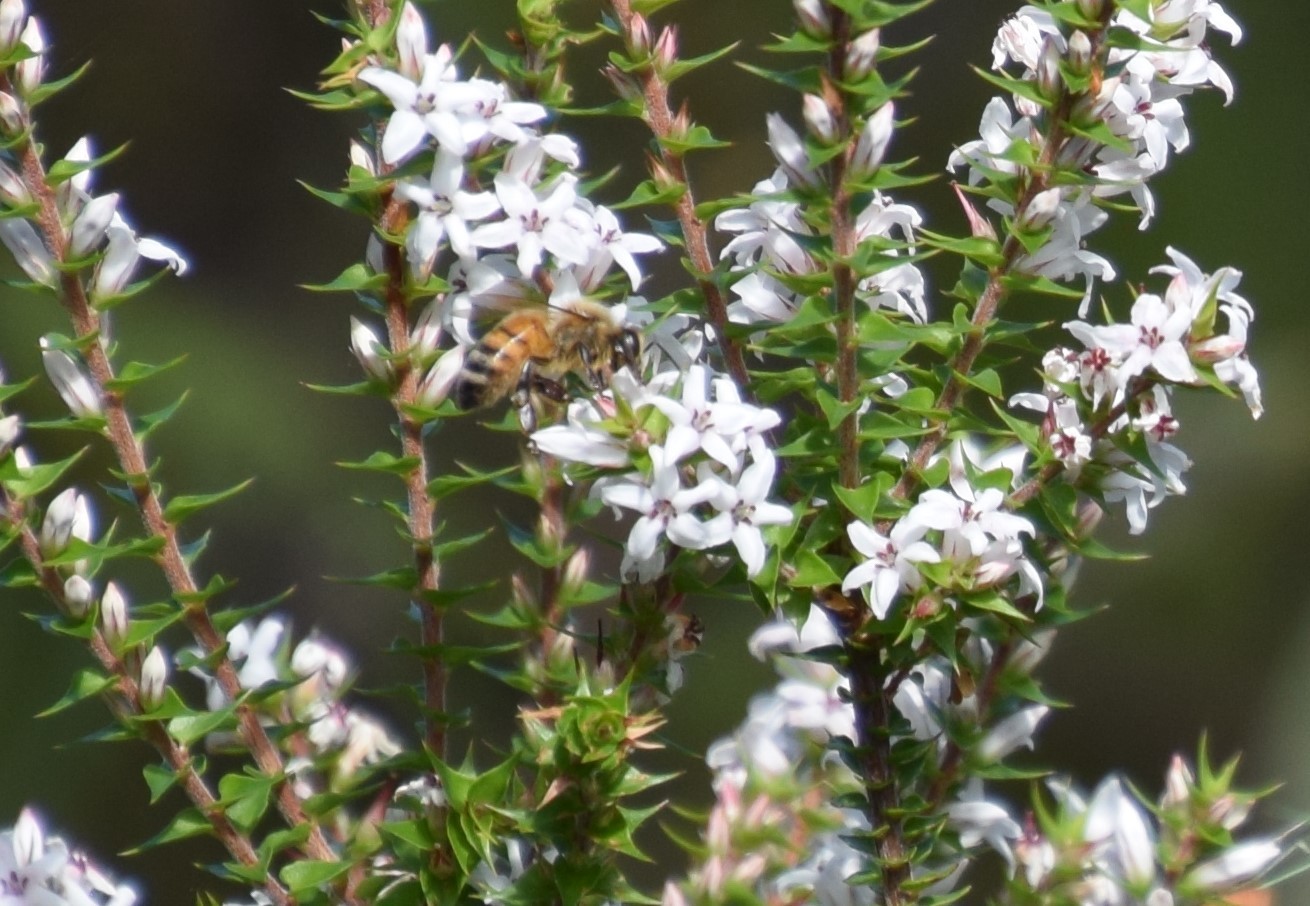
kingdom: Animalia
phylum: Arthropoda
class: Insecta
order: Hymenoptera
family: Apidae
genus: Apis
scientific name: Apis mellifera
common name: Honey bee
